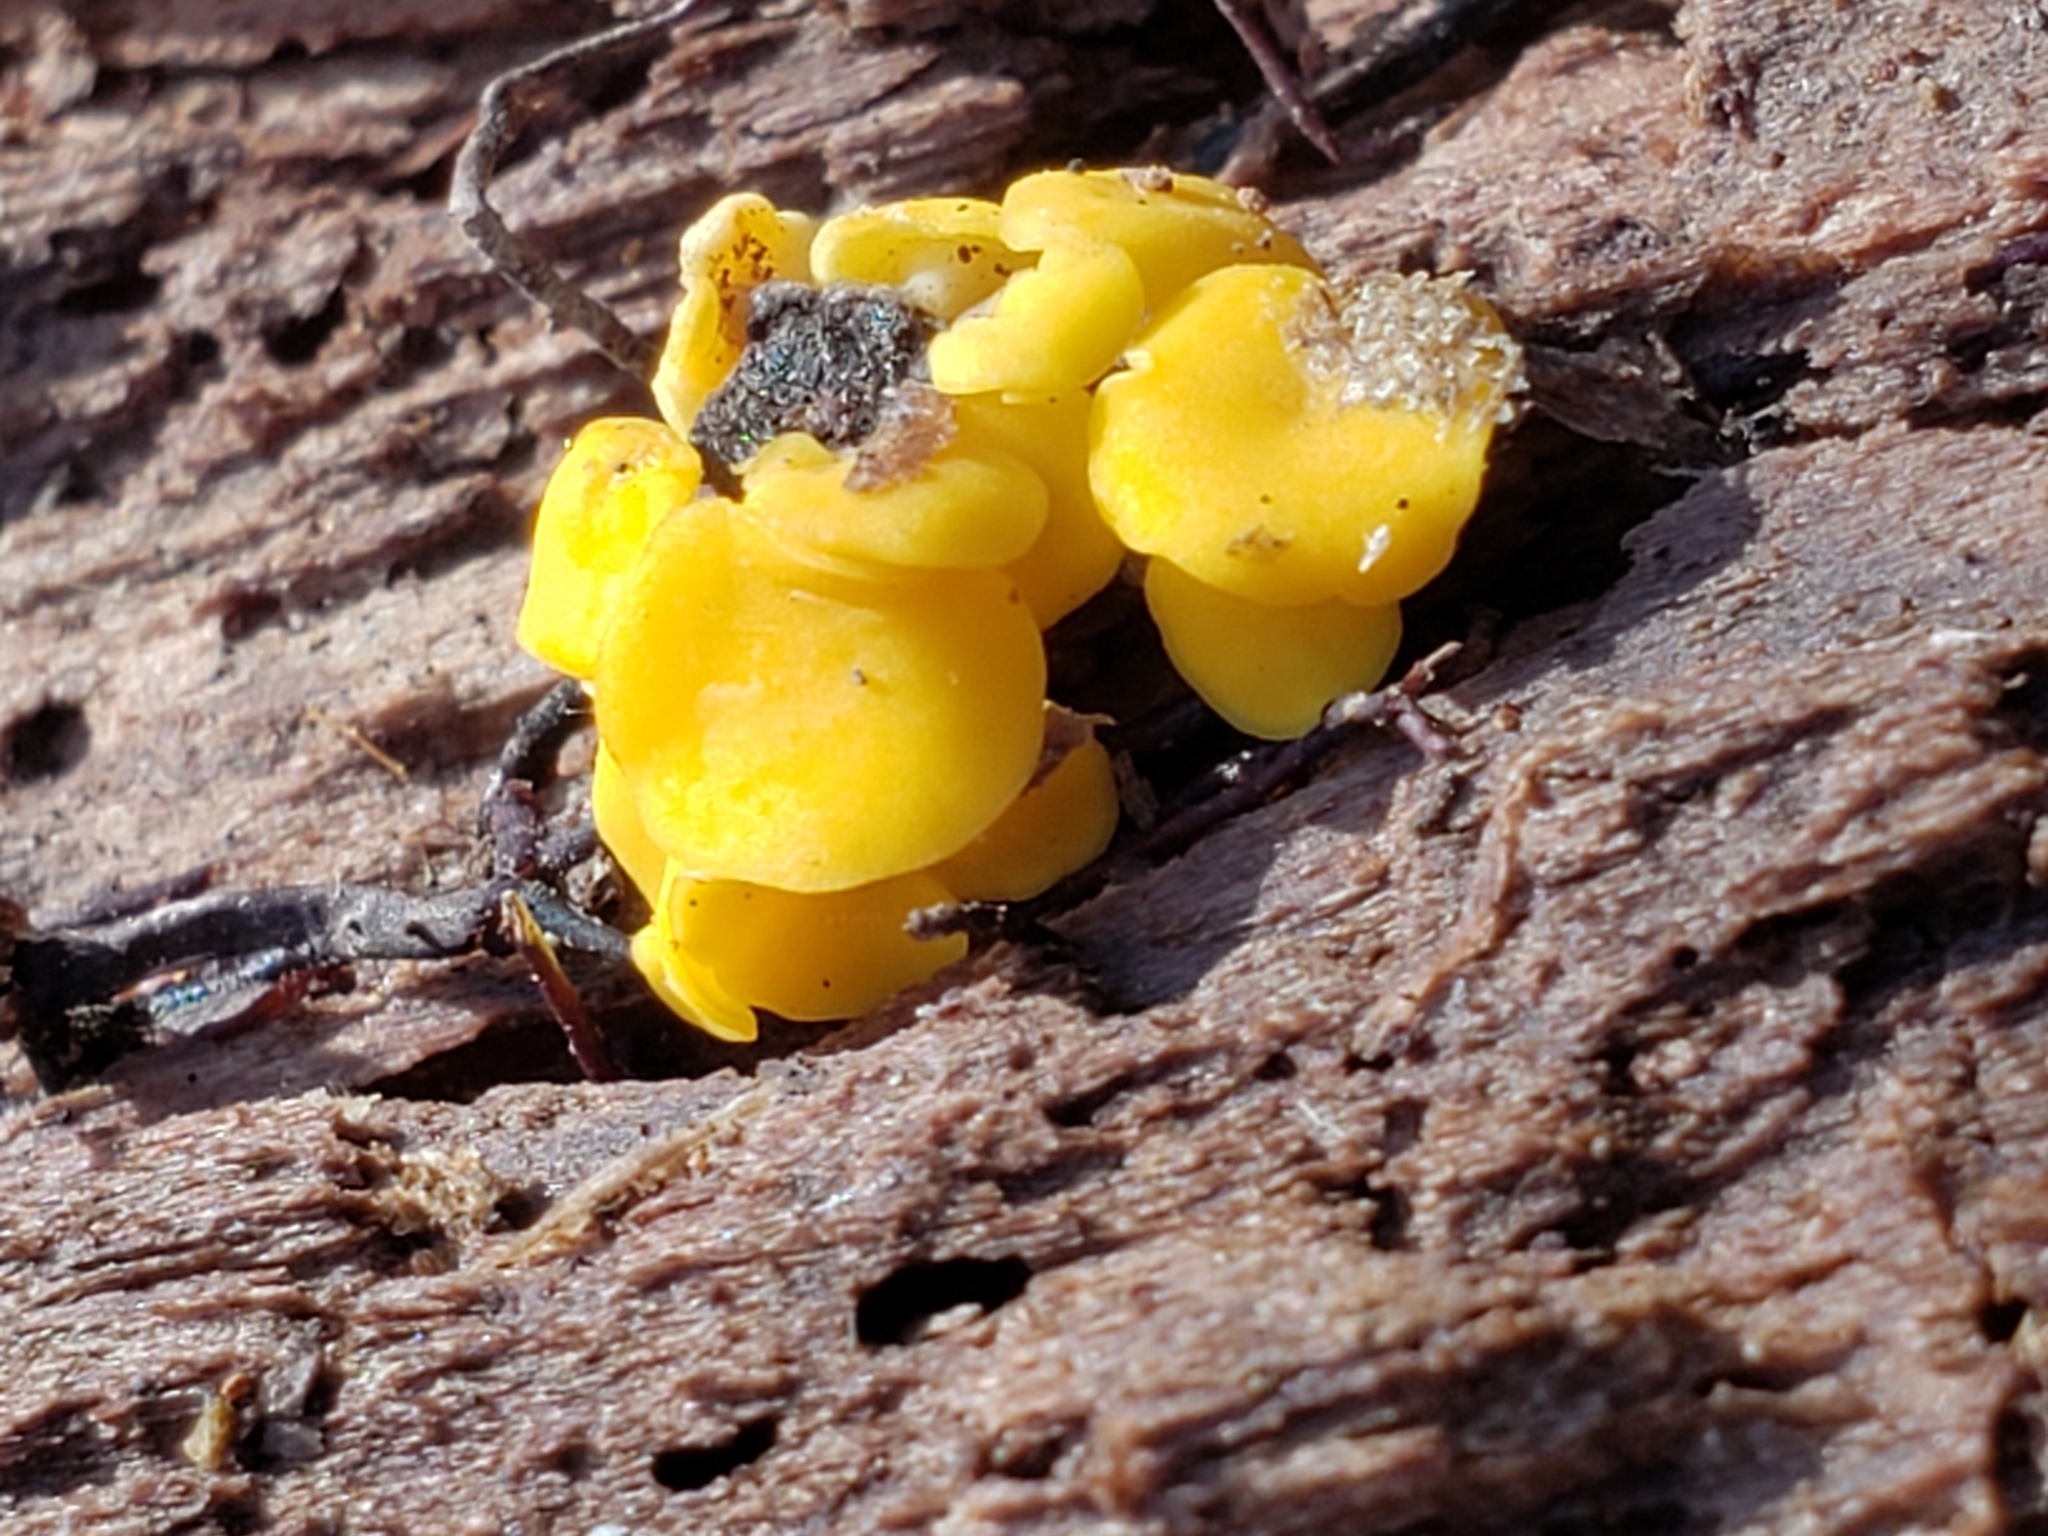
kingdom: Fungi
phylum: Ascomycota
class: Leotiomycetes
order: Helotiales
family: Pezizellaceae
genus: Calycina
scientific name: Calycina citrina
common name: Yellow fairy cups
